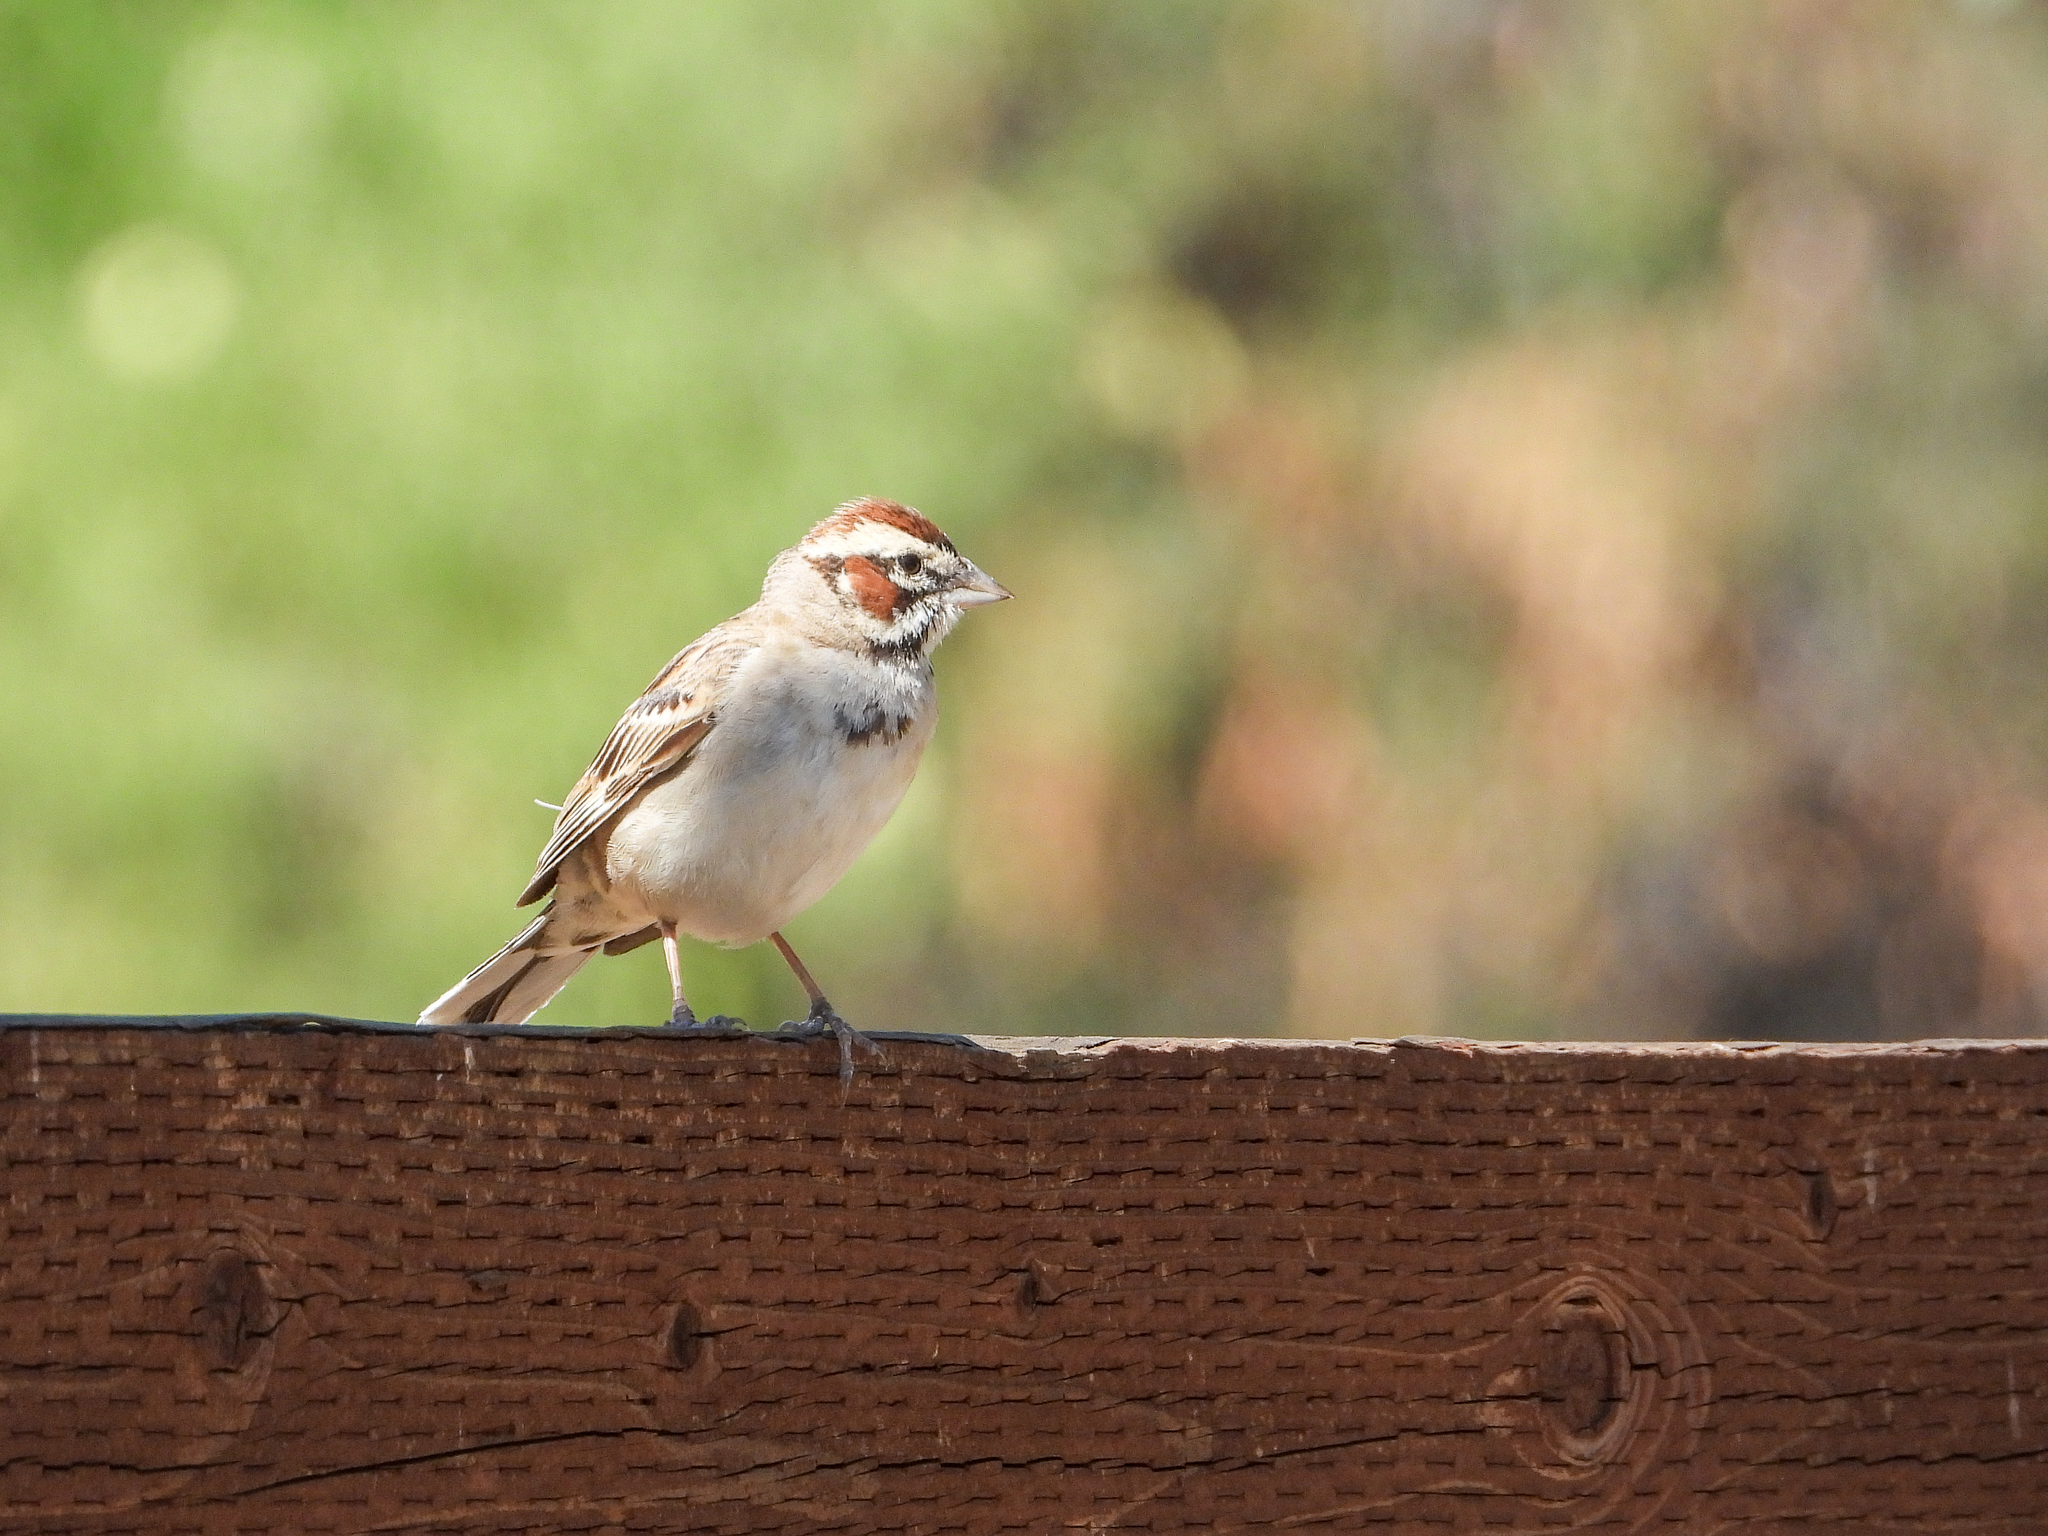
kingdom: Animalia
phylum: Chordata
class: Aves
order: Passeriformes
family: Passerellidae
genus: Chondestes
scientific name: Chondestes grammacus
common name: Lark sparrow
